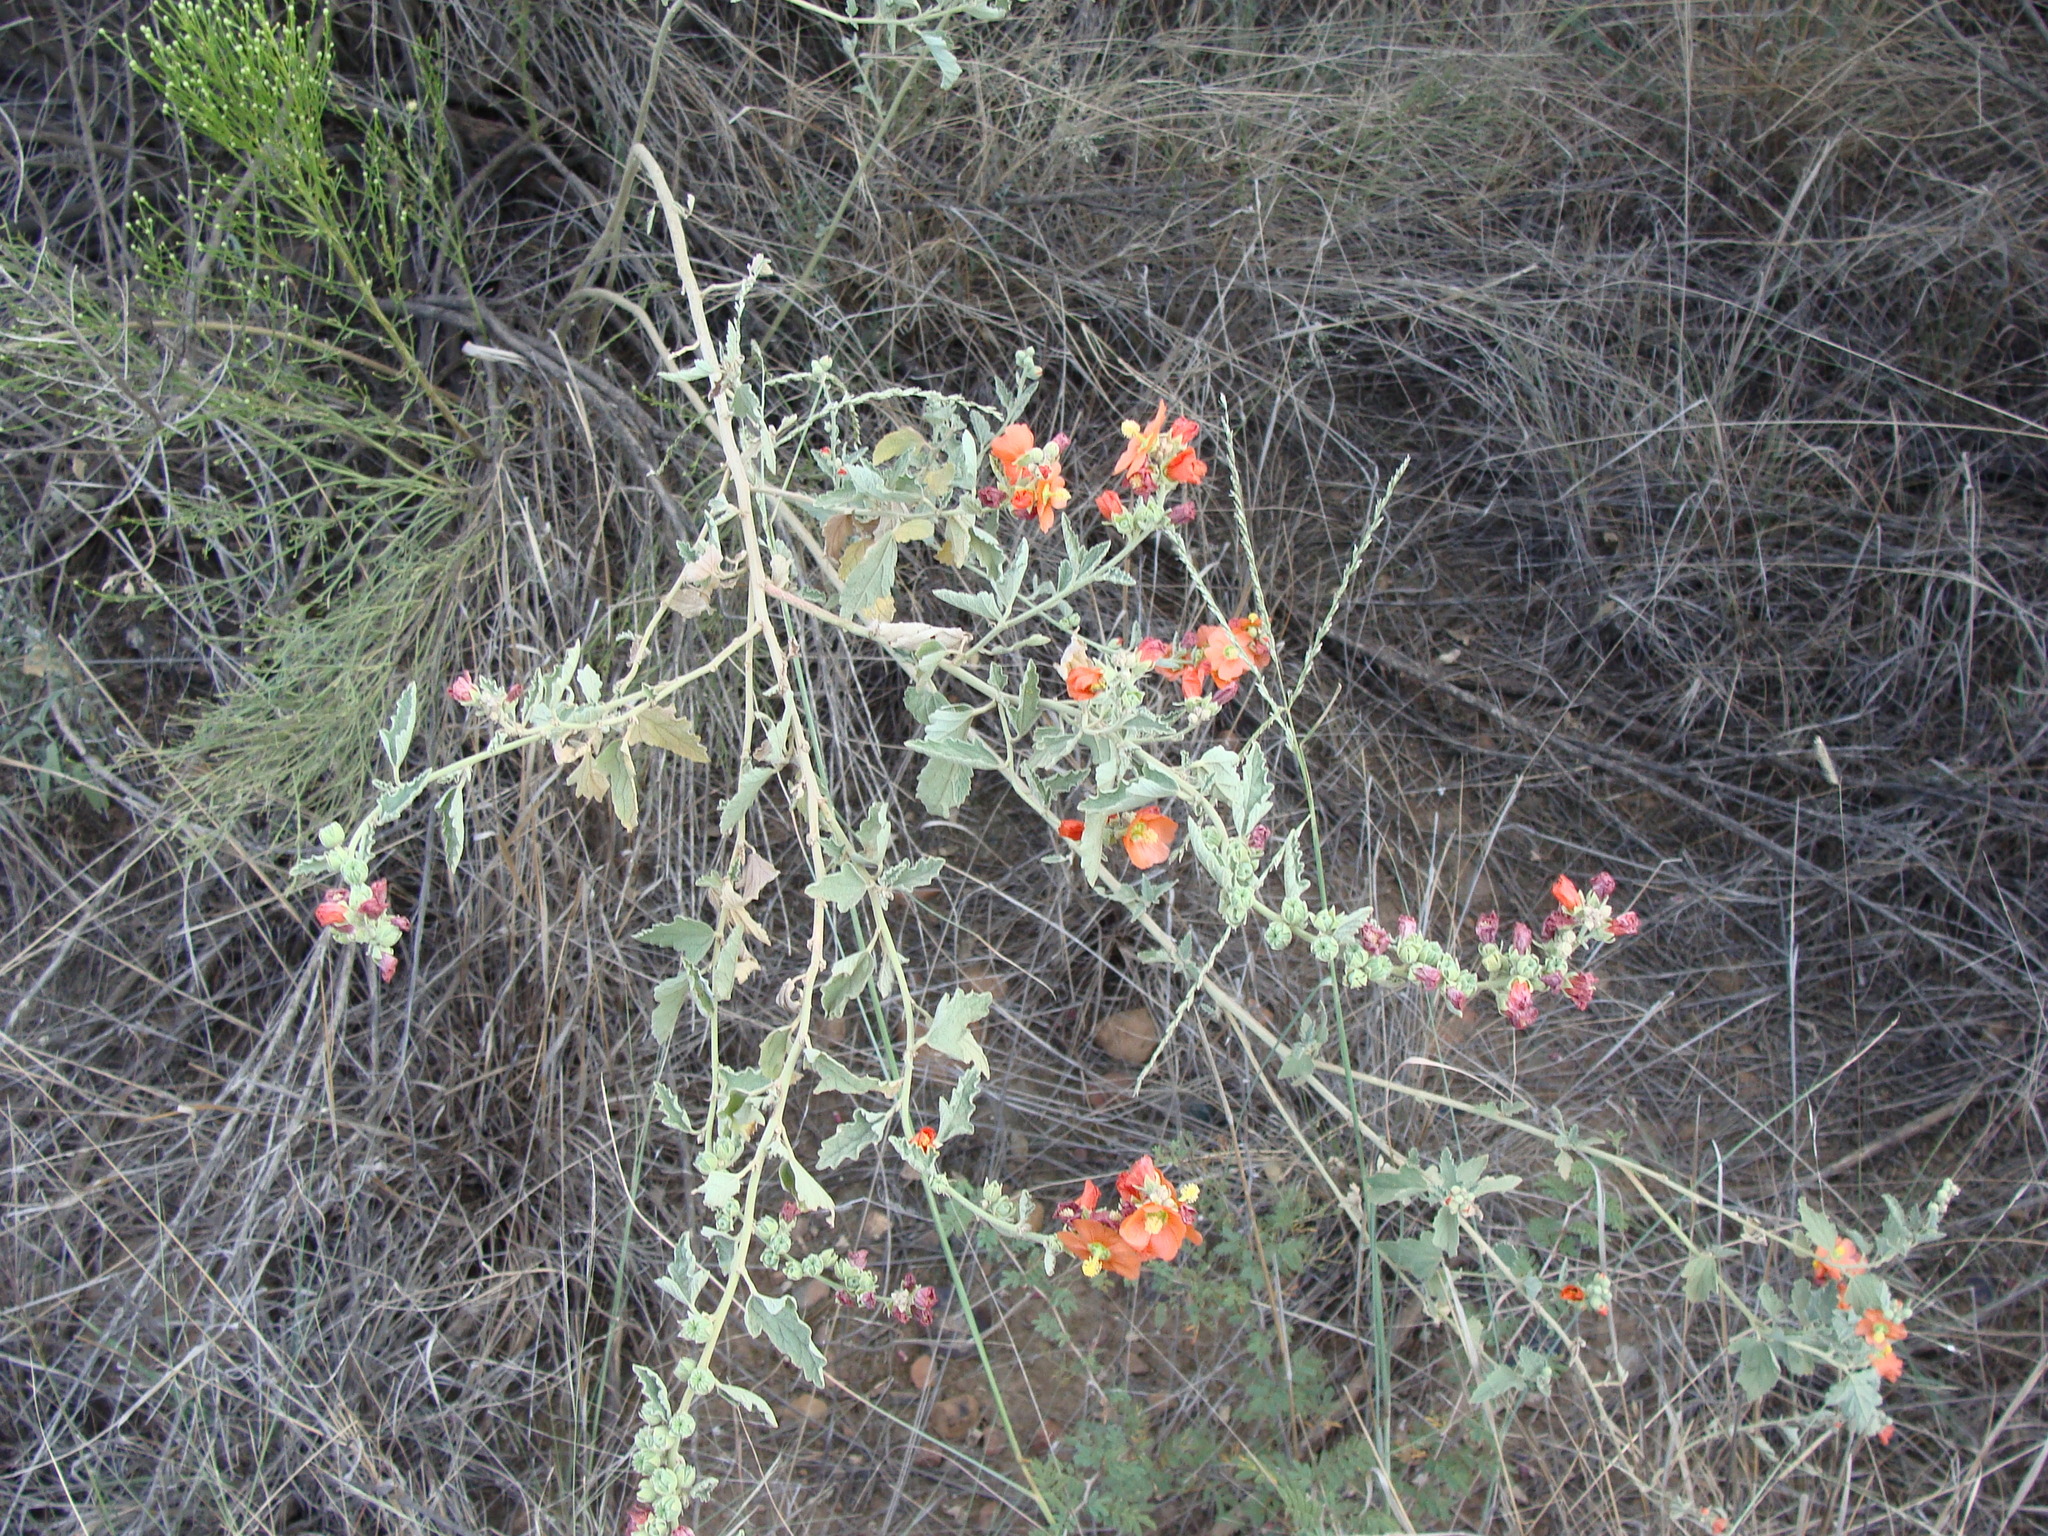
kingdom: Plantae
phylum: Tracheophyta
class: Magnoliopsida
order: Malvales
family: Malvaceae
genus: Sphaeralcea
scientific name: Sphaeralcea fendleri
